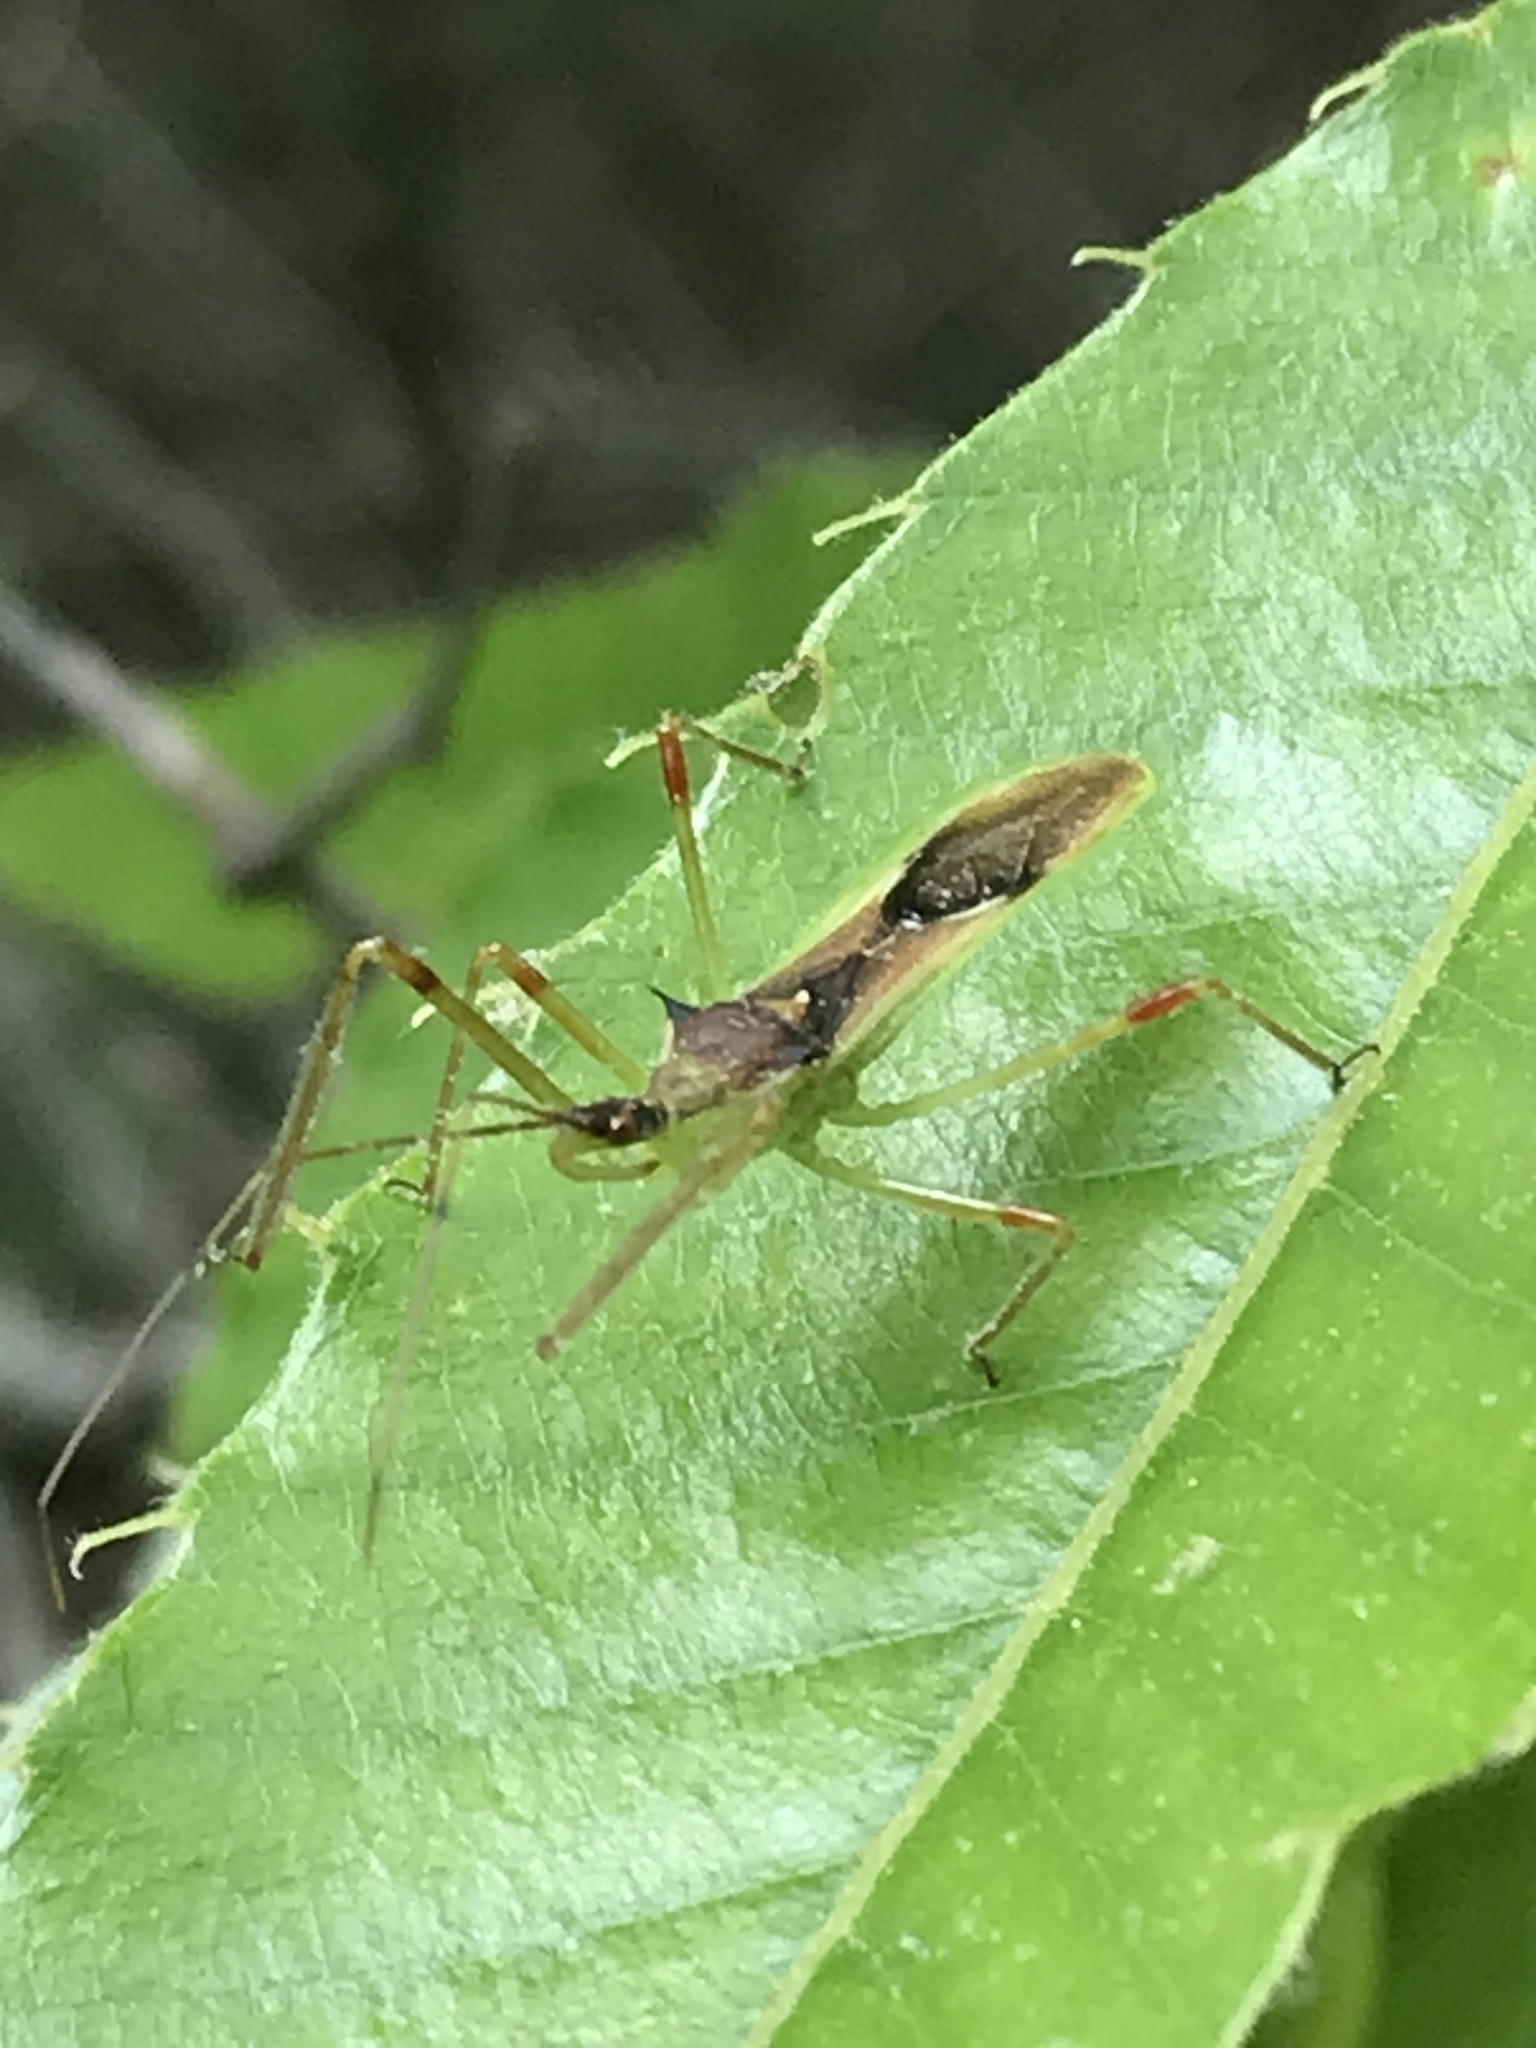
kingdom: Animalia
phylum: Arthropoda
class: Insecta
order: Hemiptera
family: Reduviidae
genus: Zelus
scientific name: Zelus luridus
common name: Pale green assassin bug
